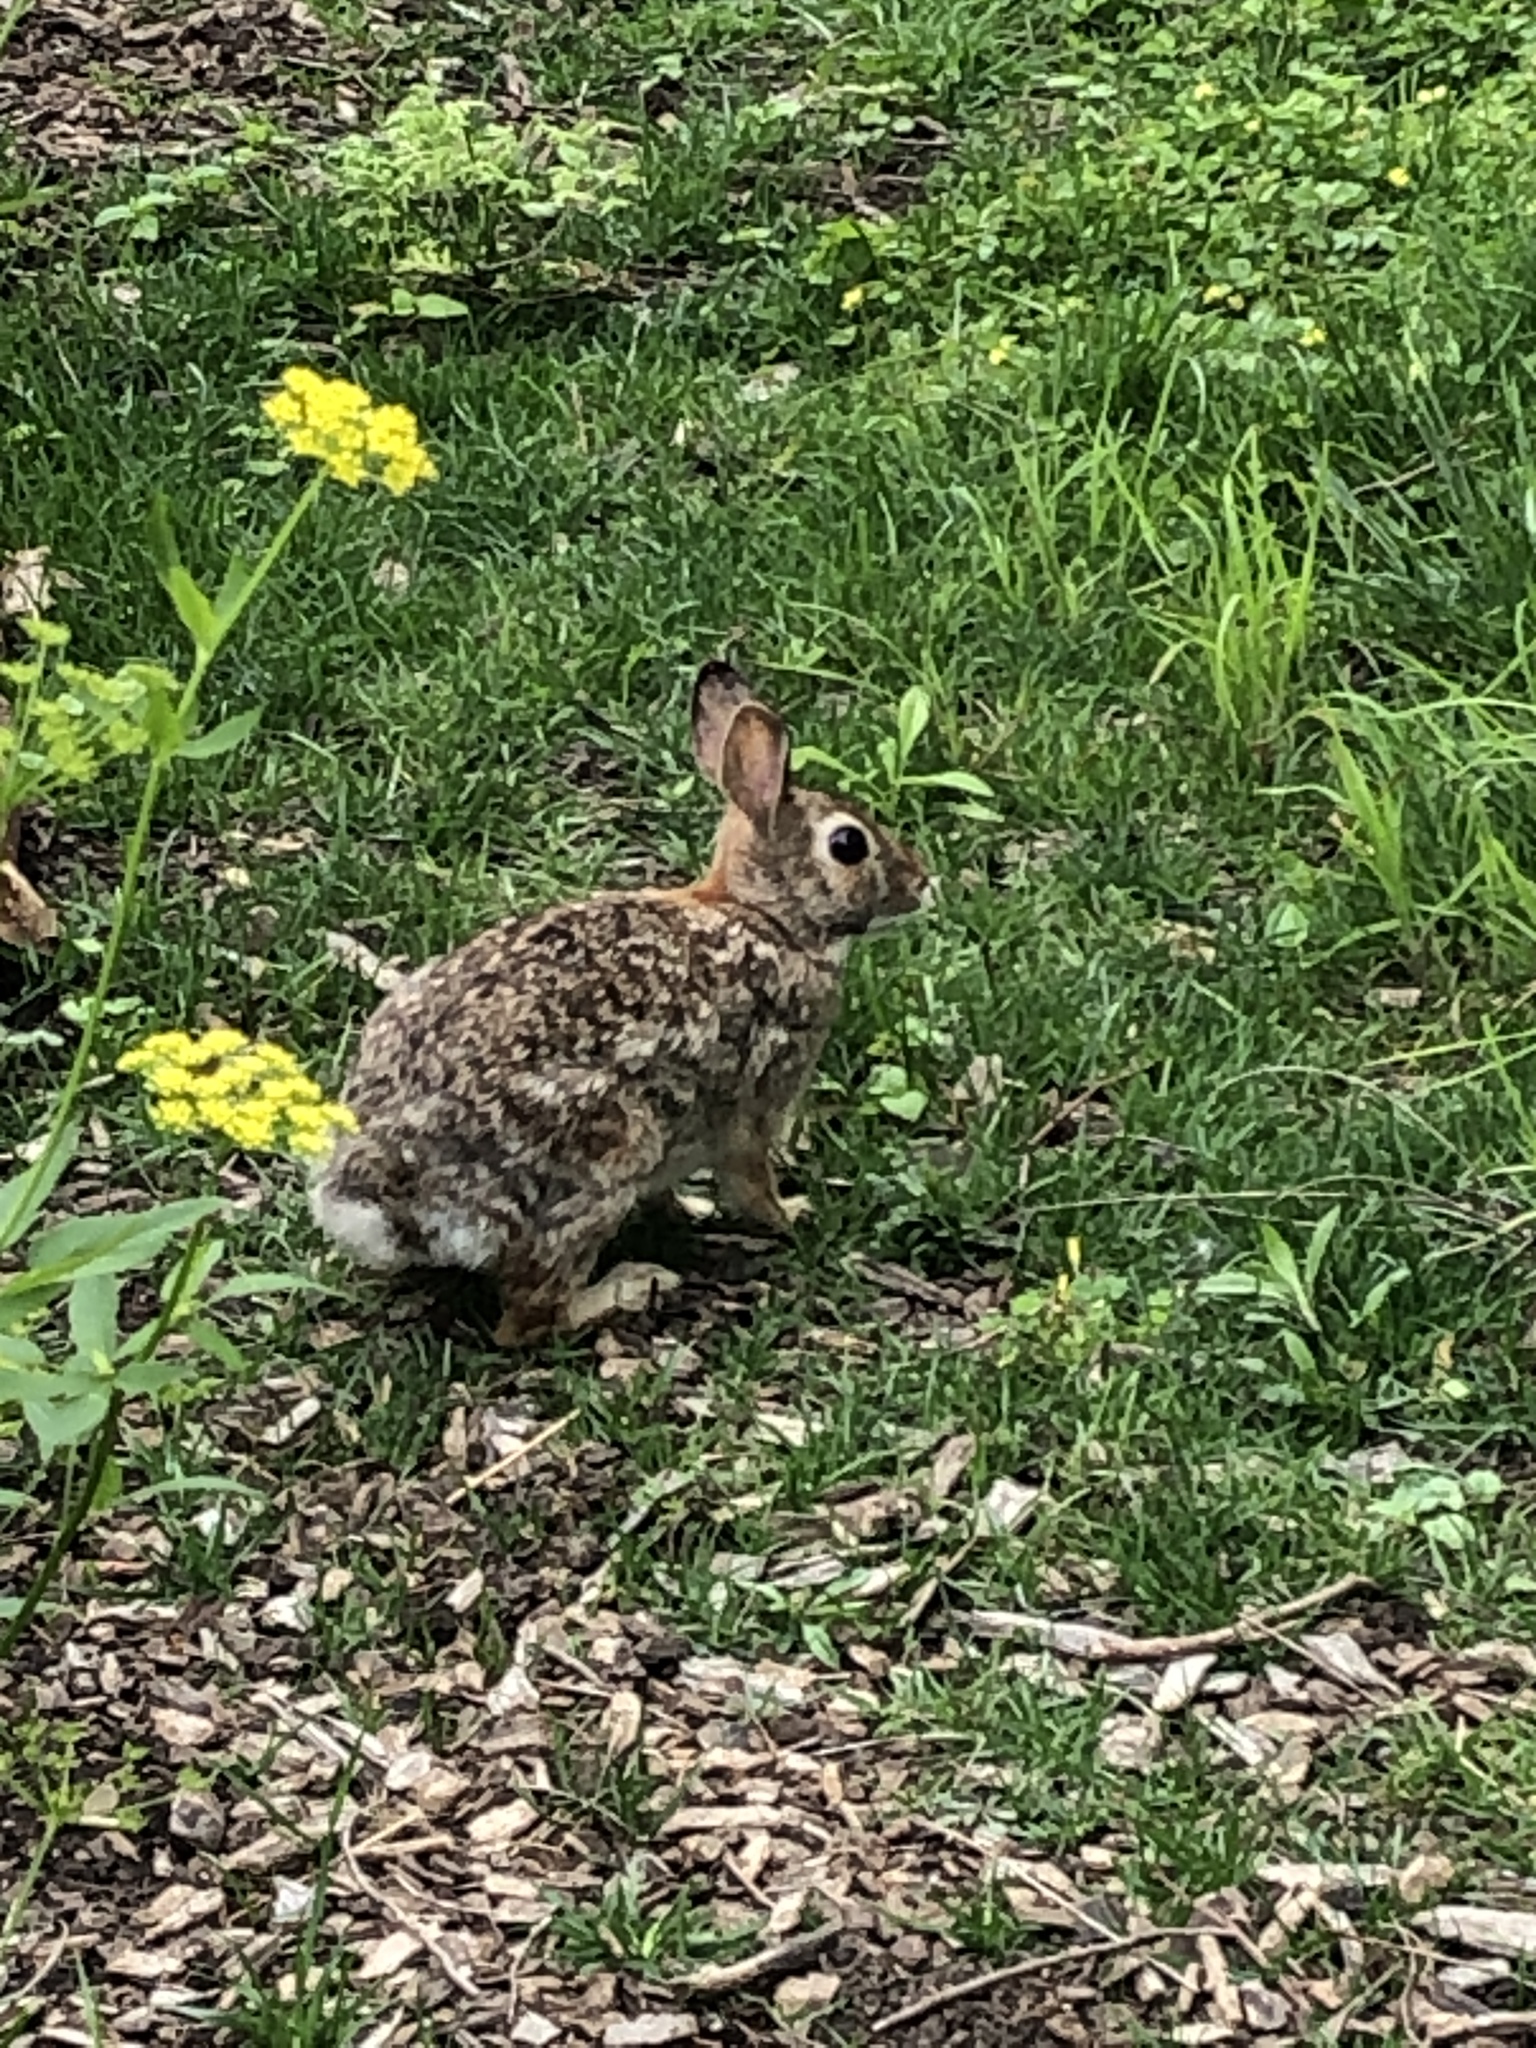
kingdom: Animalia
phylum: Chordata
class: Mammalia
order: Lagomorpha
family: Leporidae
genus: Sylvilagus
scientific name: Sylvilagus floridanus
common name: Eastern cottontail
